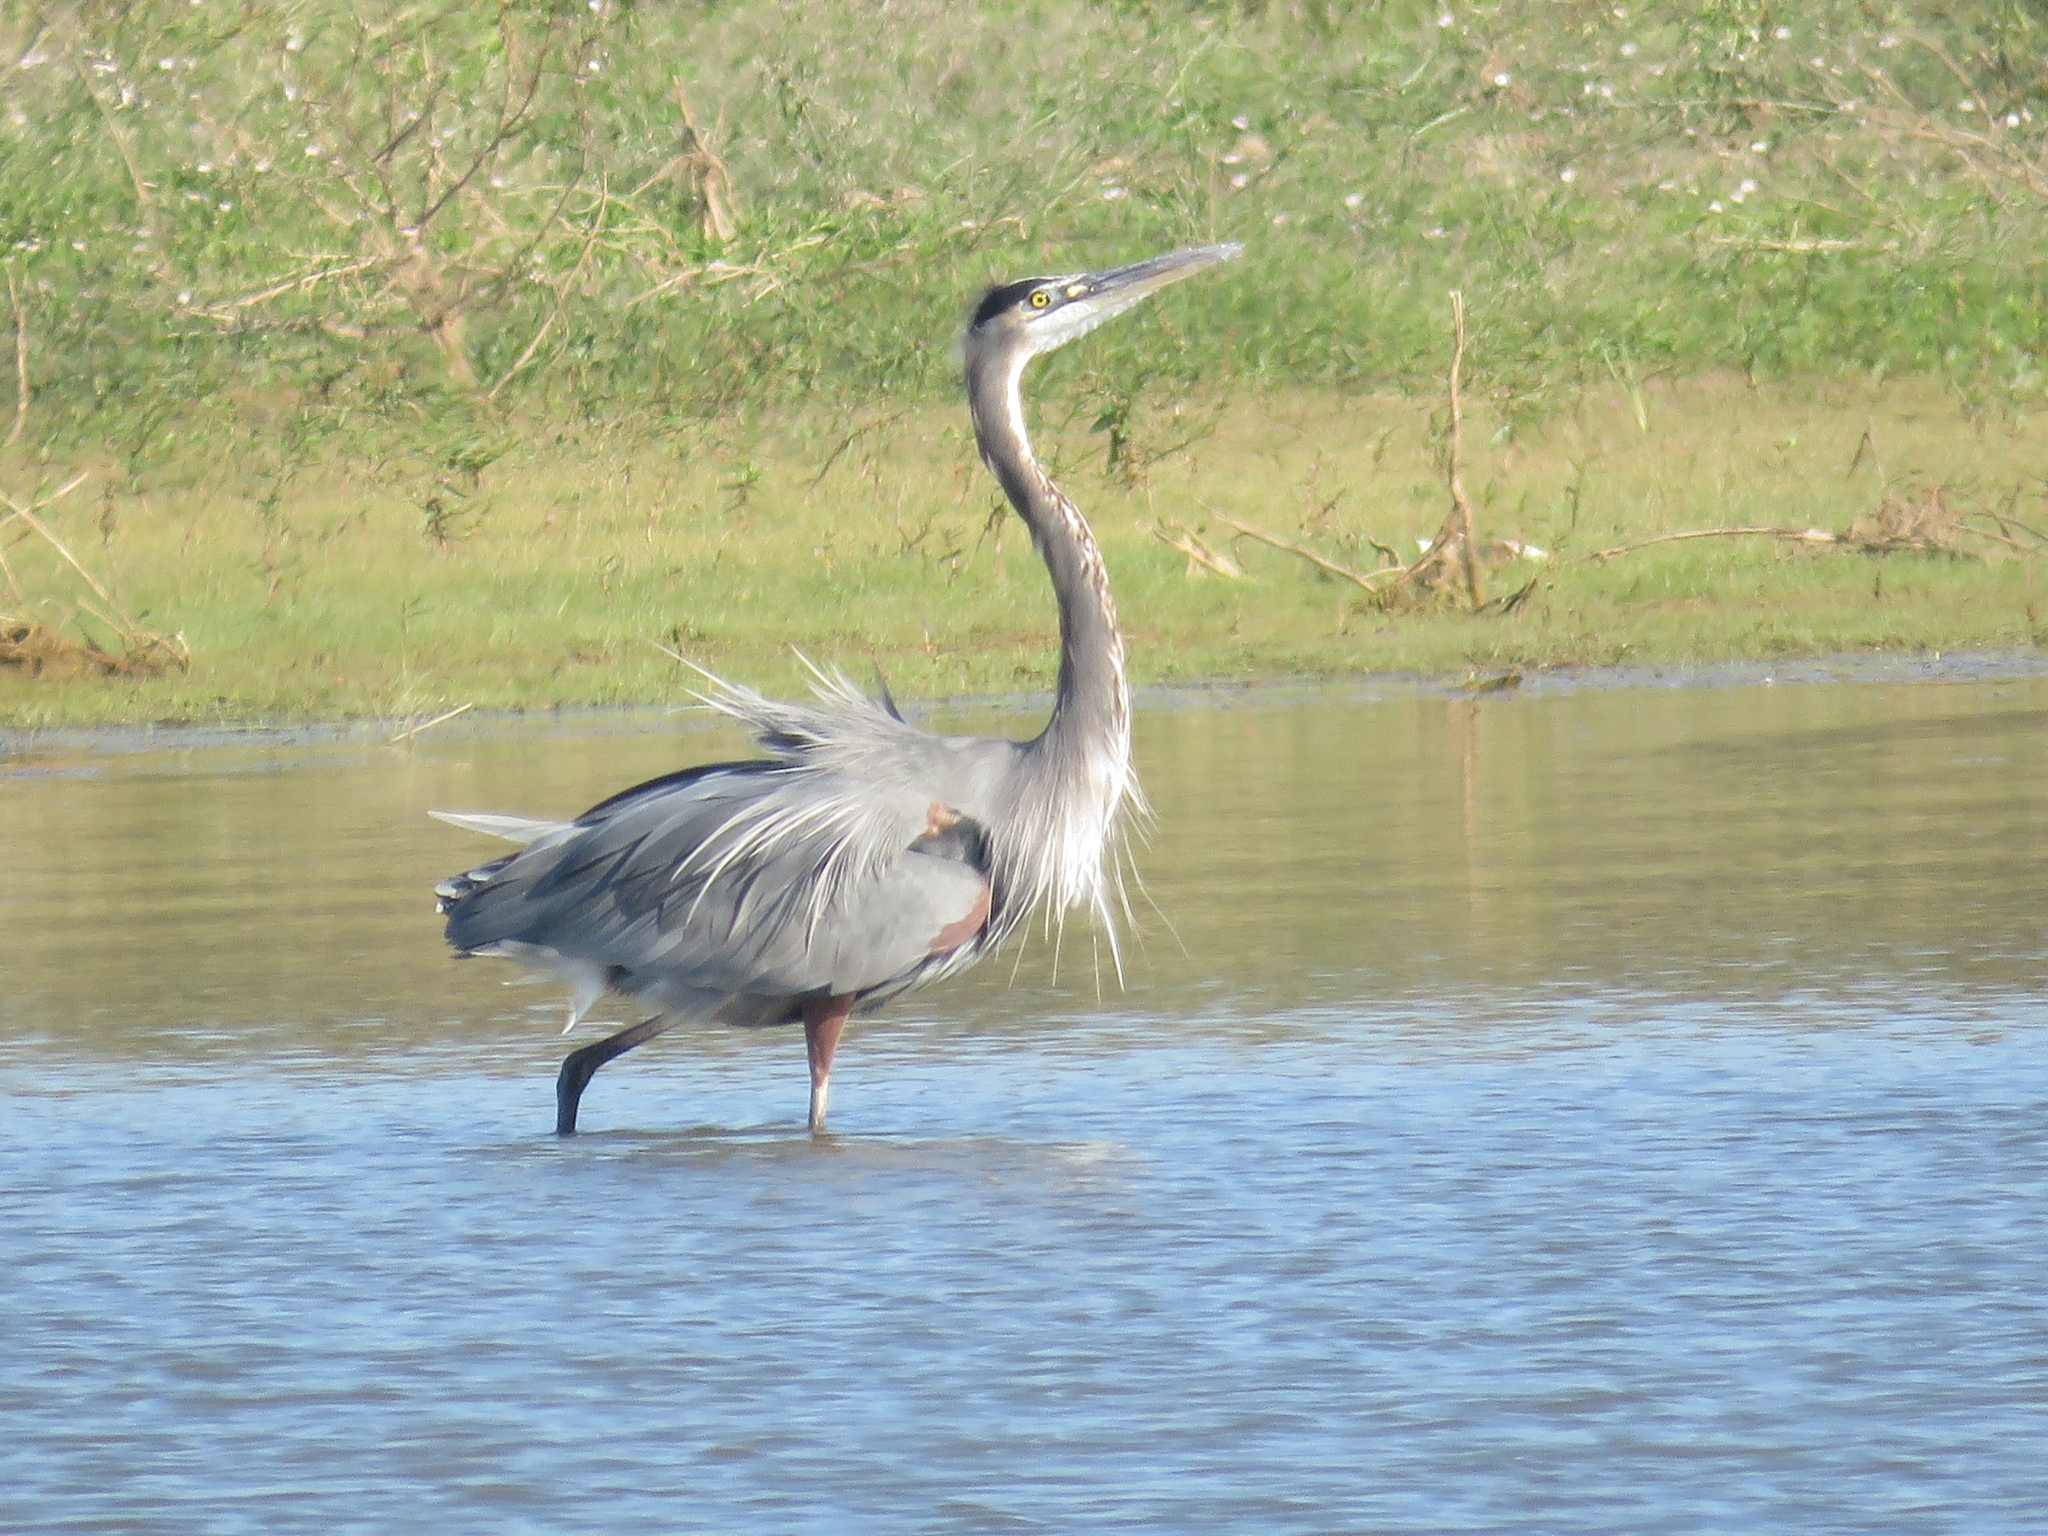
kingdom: Animalia
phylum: Chordata
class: Aves
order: Pelecaniformes
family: Ardeidae
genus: Ardea
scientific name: Ardea herodias
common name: Great blue heron
